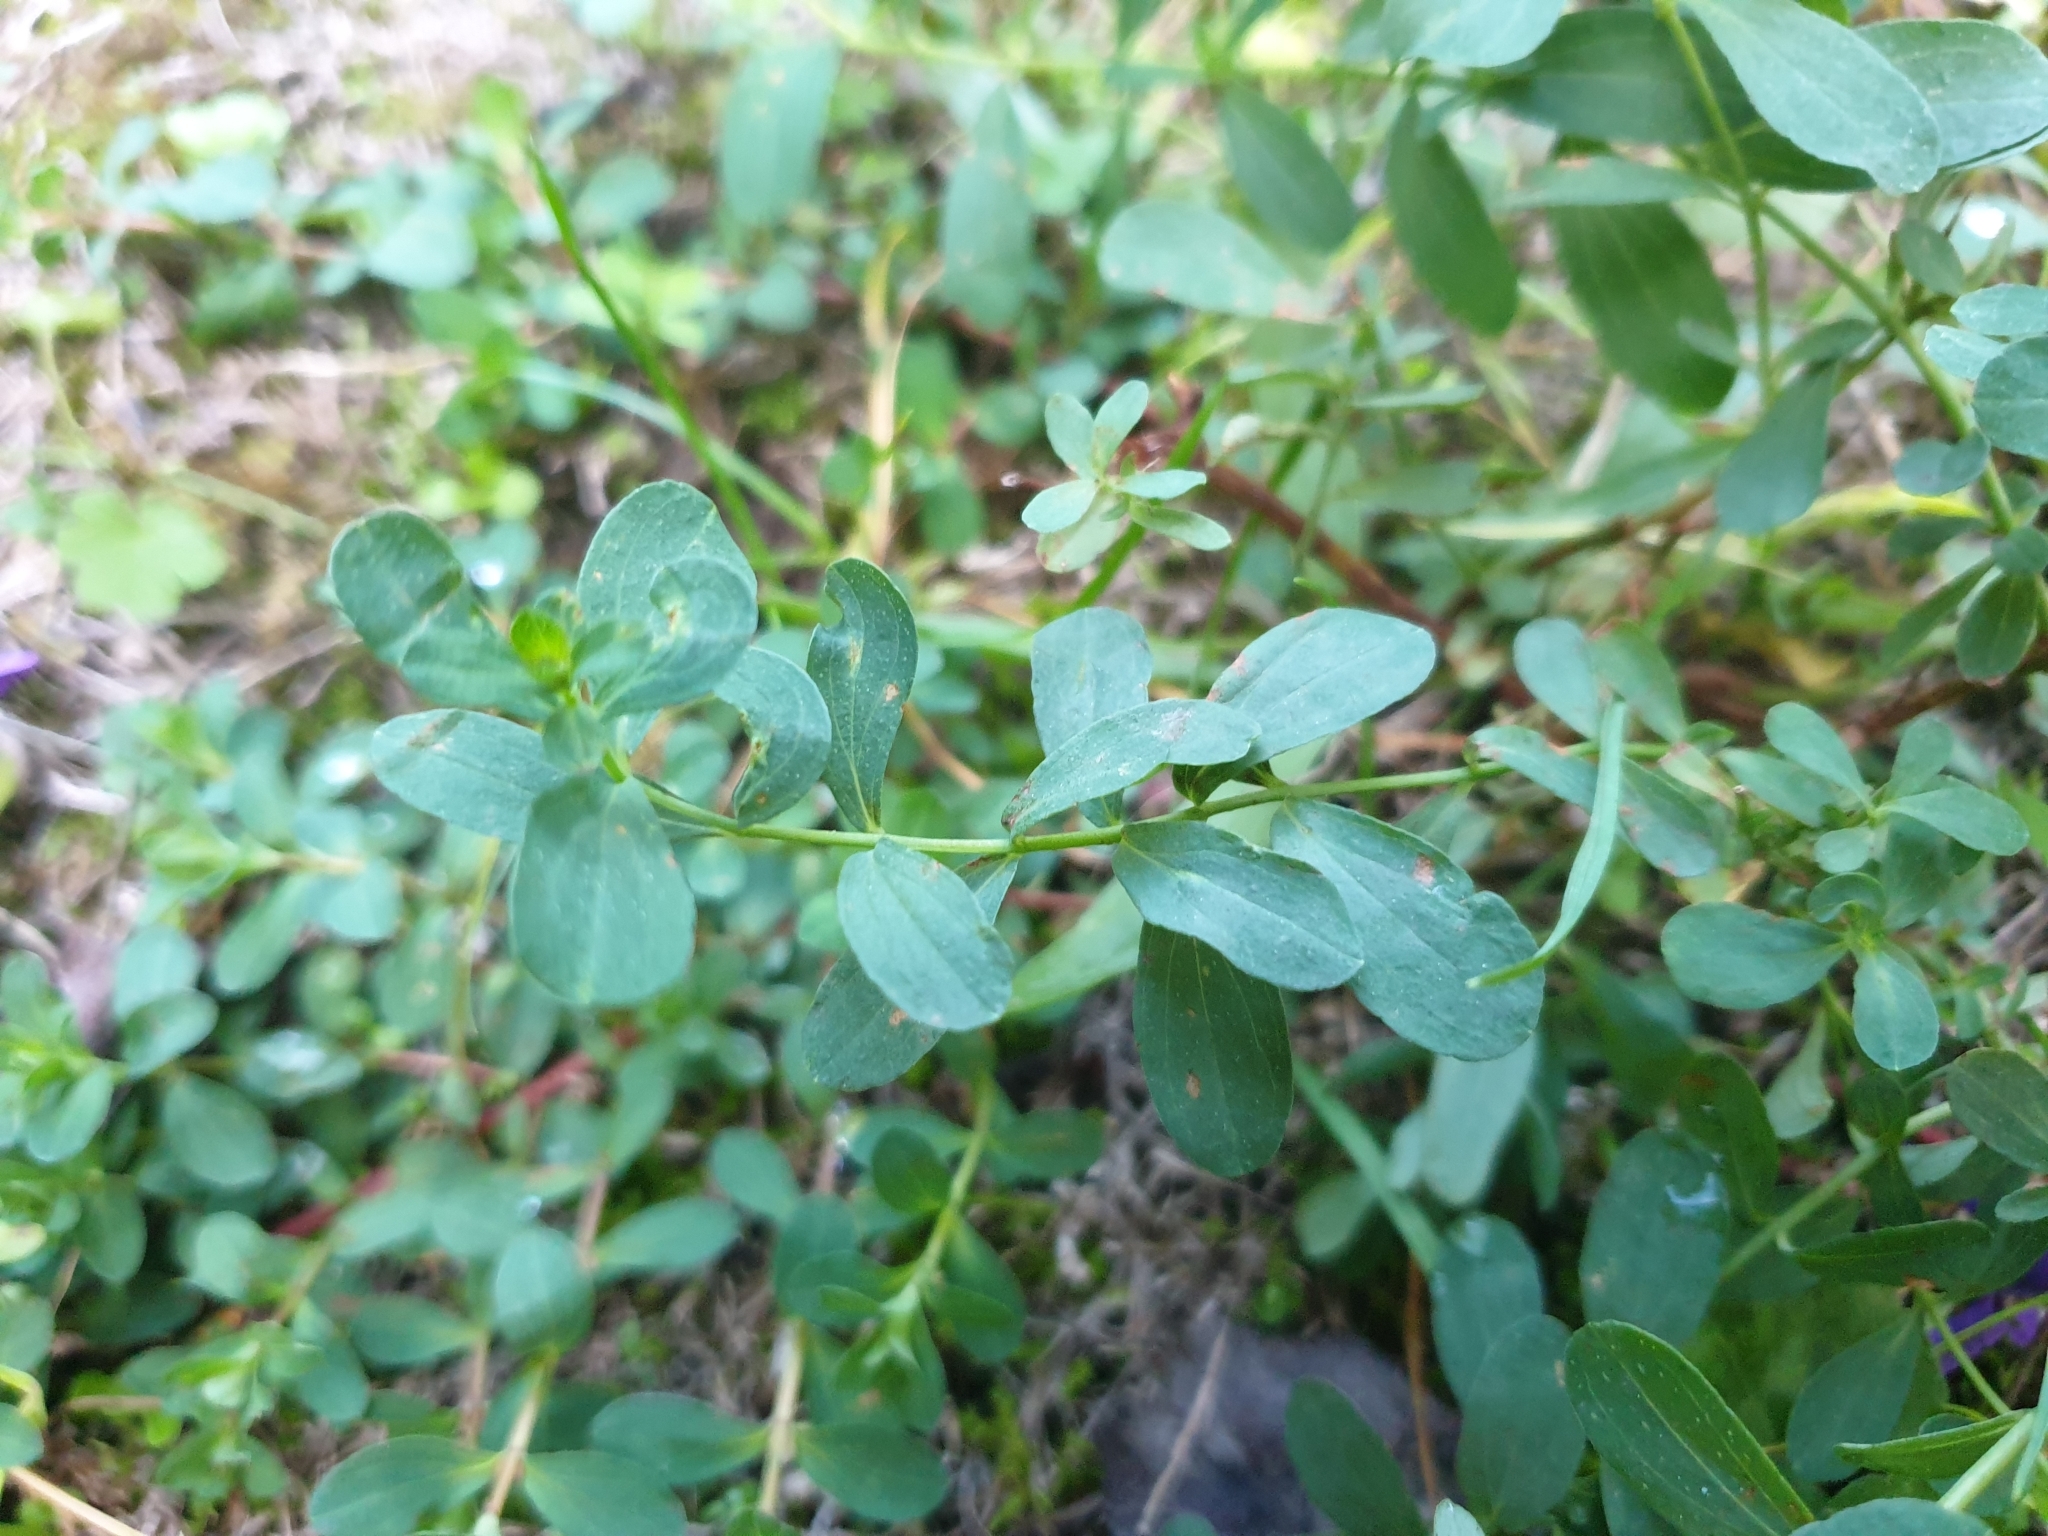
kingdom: Plantae
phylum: Tracheophyta
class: Magnoliopsida
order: Malpighiales
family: Hypericaceae
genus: Hypericum
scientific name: Hypericum perforatum
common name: Common st. johnswort
